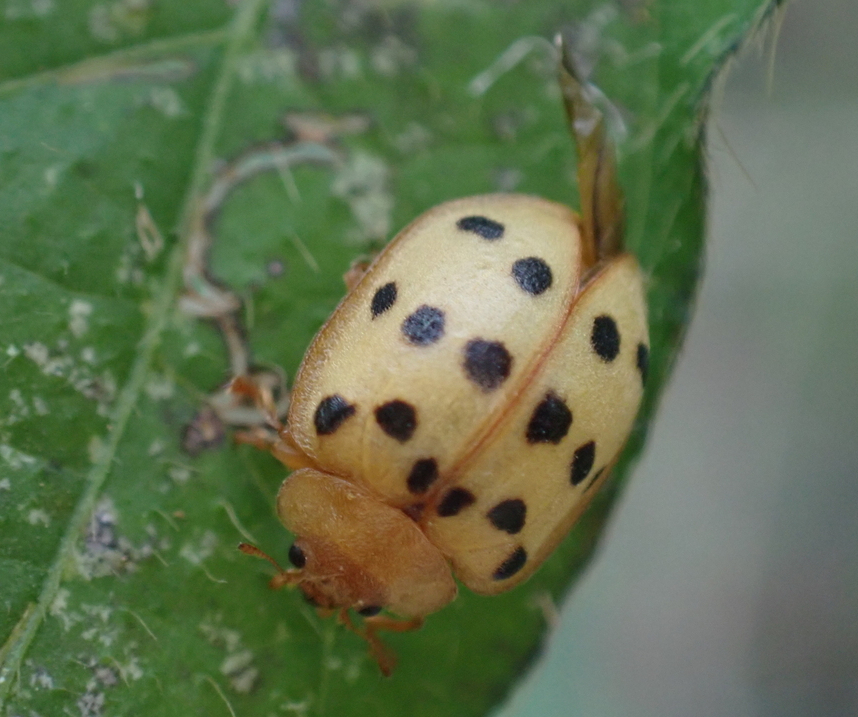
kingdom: Animalia
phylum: Arthropoda
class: Insecta
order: Coleoptera
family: Coccinellidae
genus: Epilachna
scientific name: Epilachna varivestis
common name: Ladybird beetle
